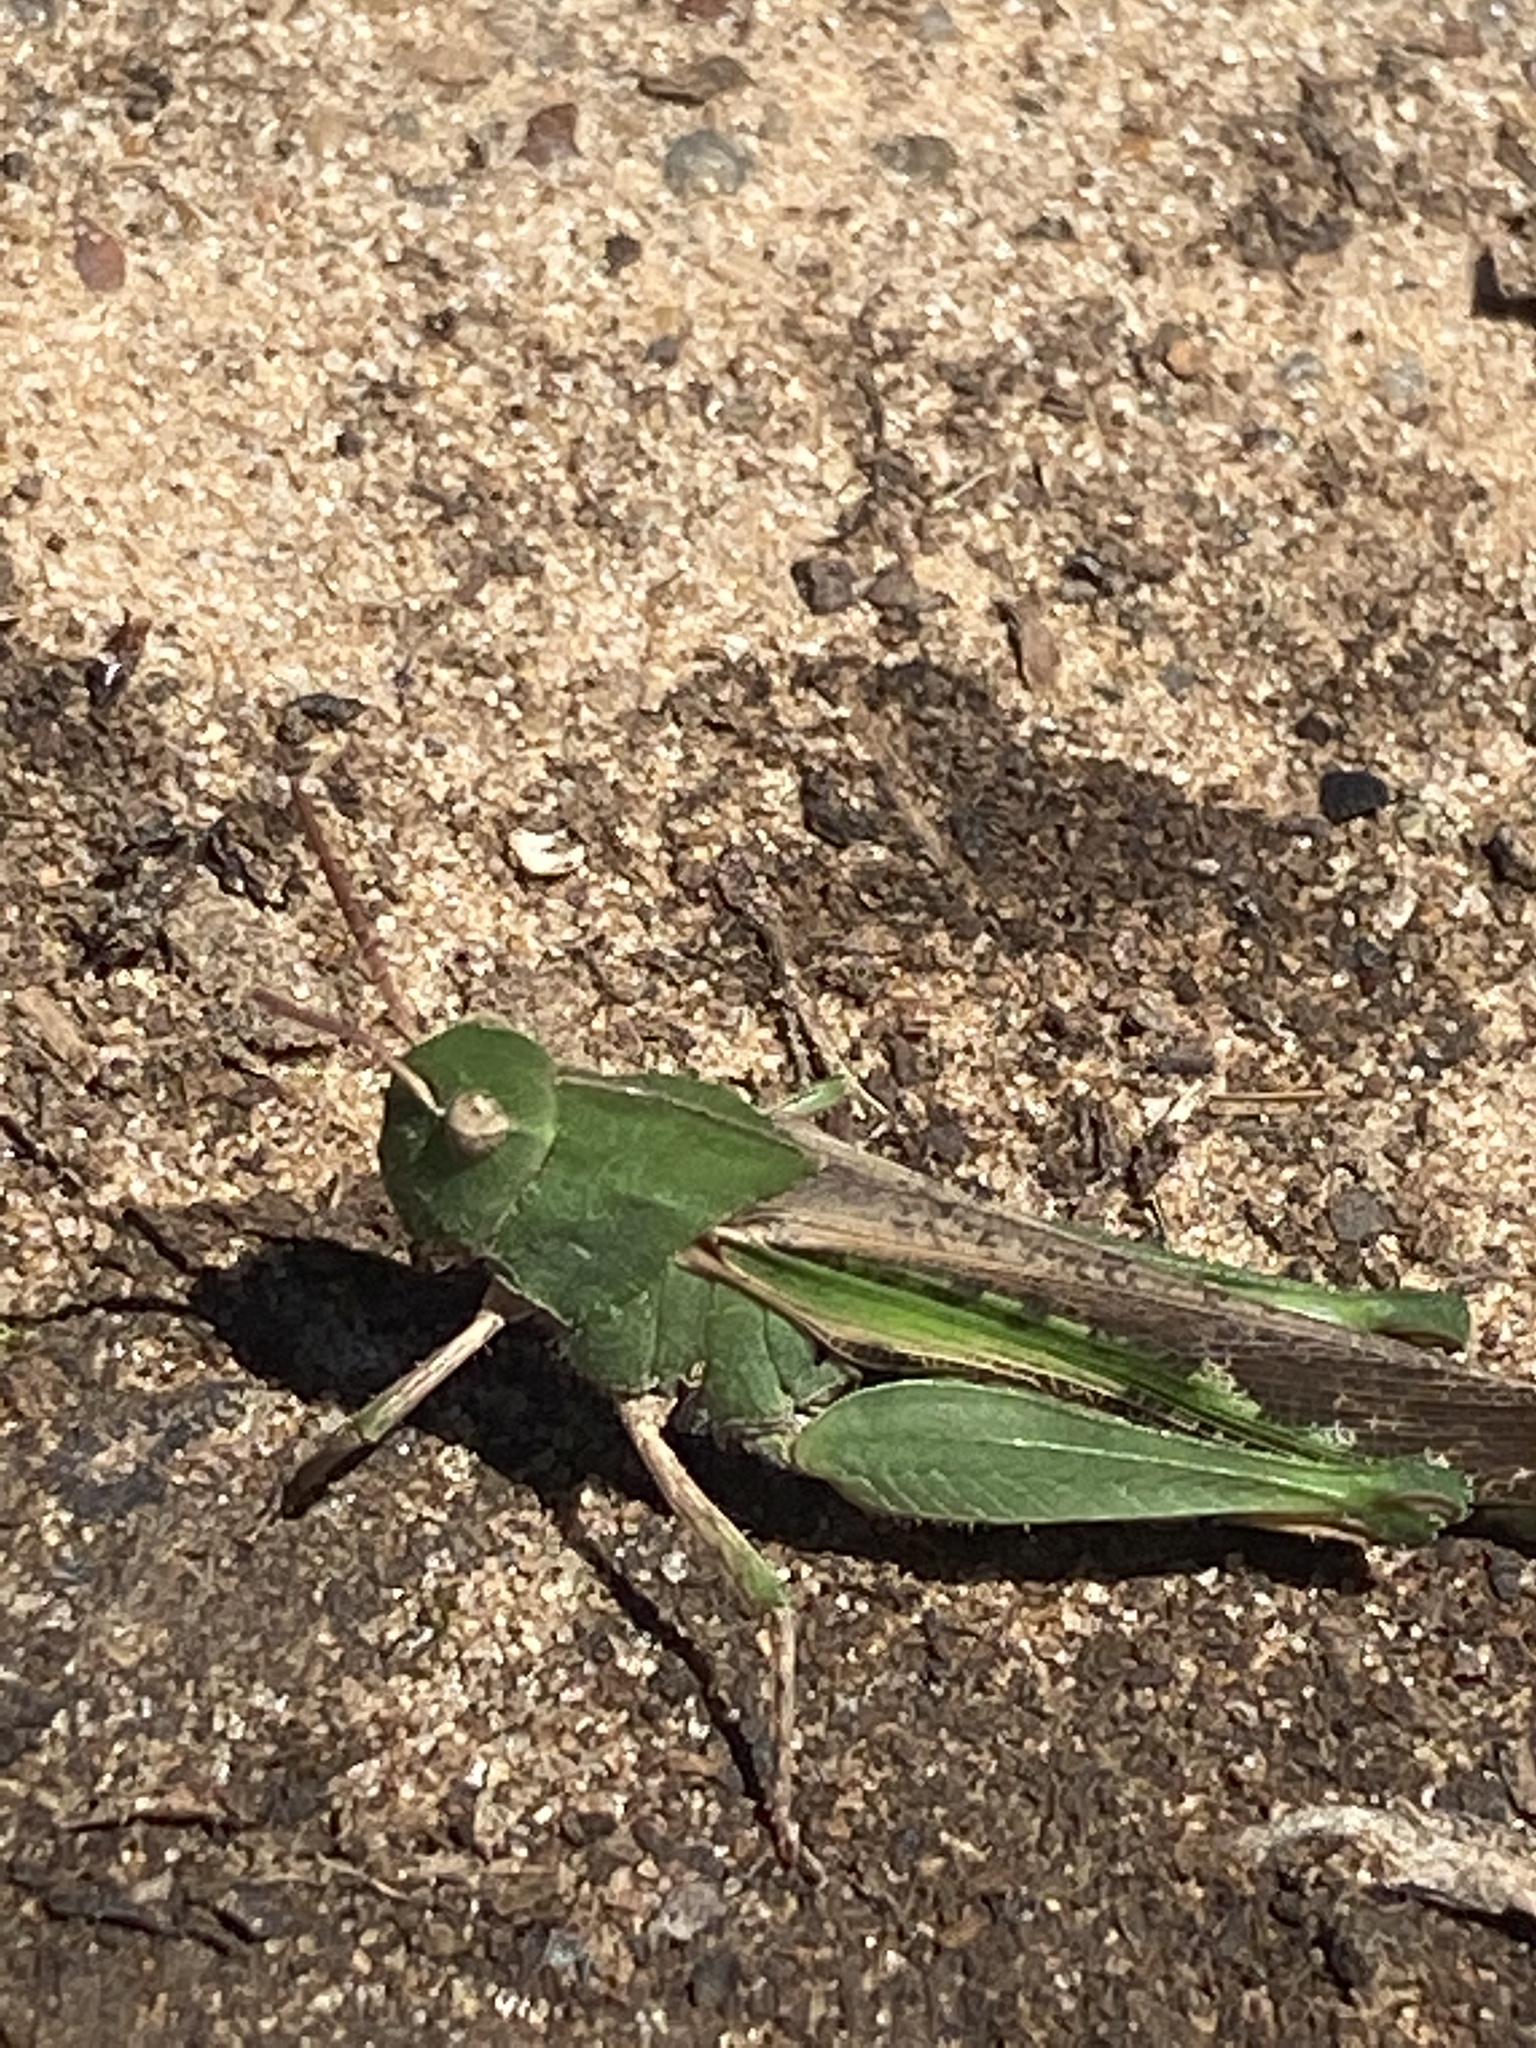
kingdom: Animalia
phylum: Arthropoda
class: Insecta
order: Orthoptera
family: Acrididae
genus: Chortophaga
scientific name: Chortophaga viridifasciata
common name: Green-striped grasshopper
